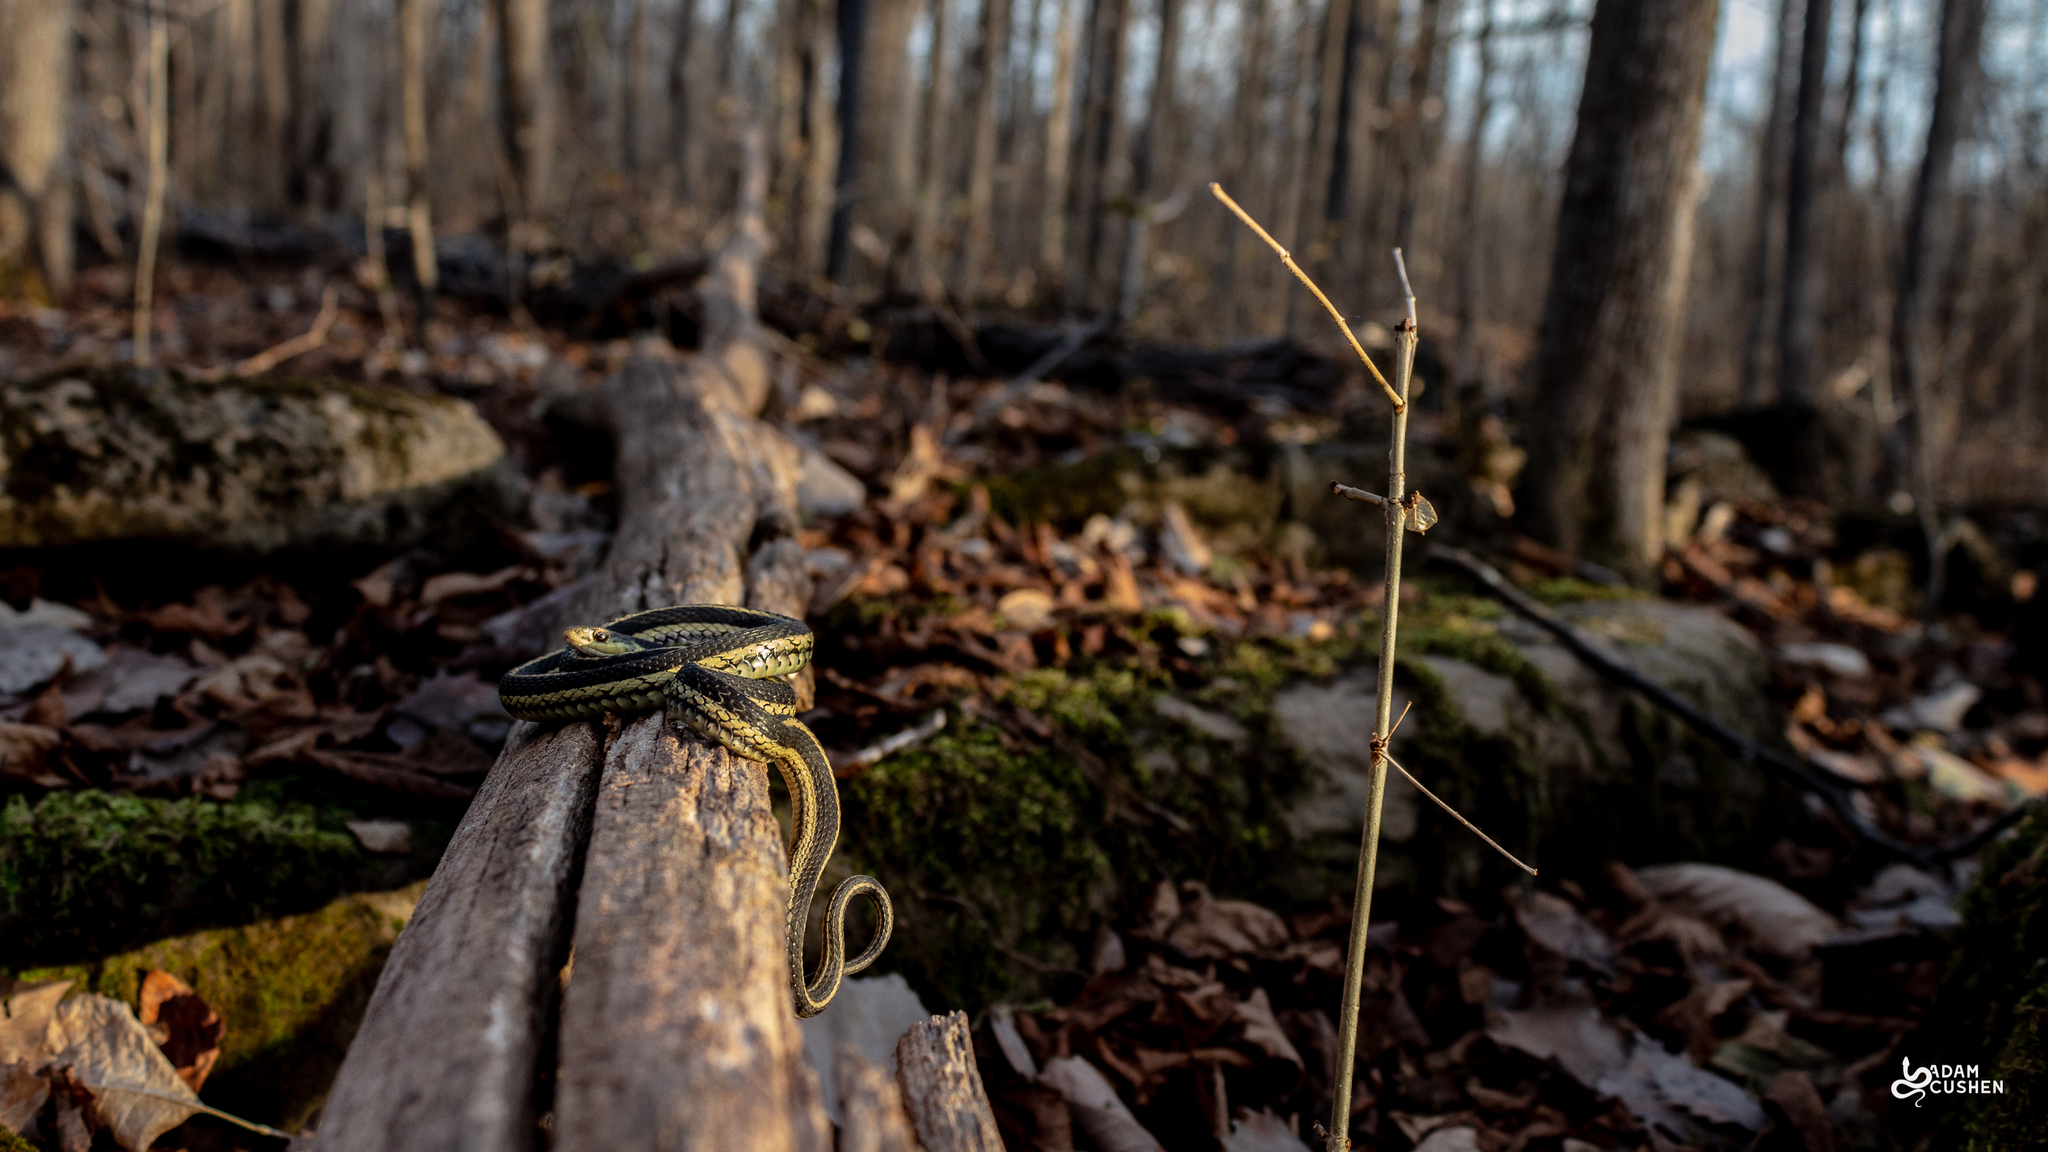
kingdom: Animalia
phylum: Chordata
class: Squamata
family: Colubridae
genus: Thamnophis
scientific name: Thamnophis sirtalis
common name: Common garter snake
